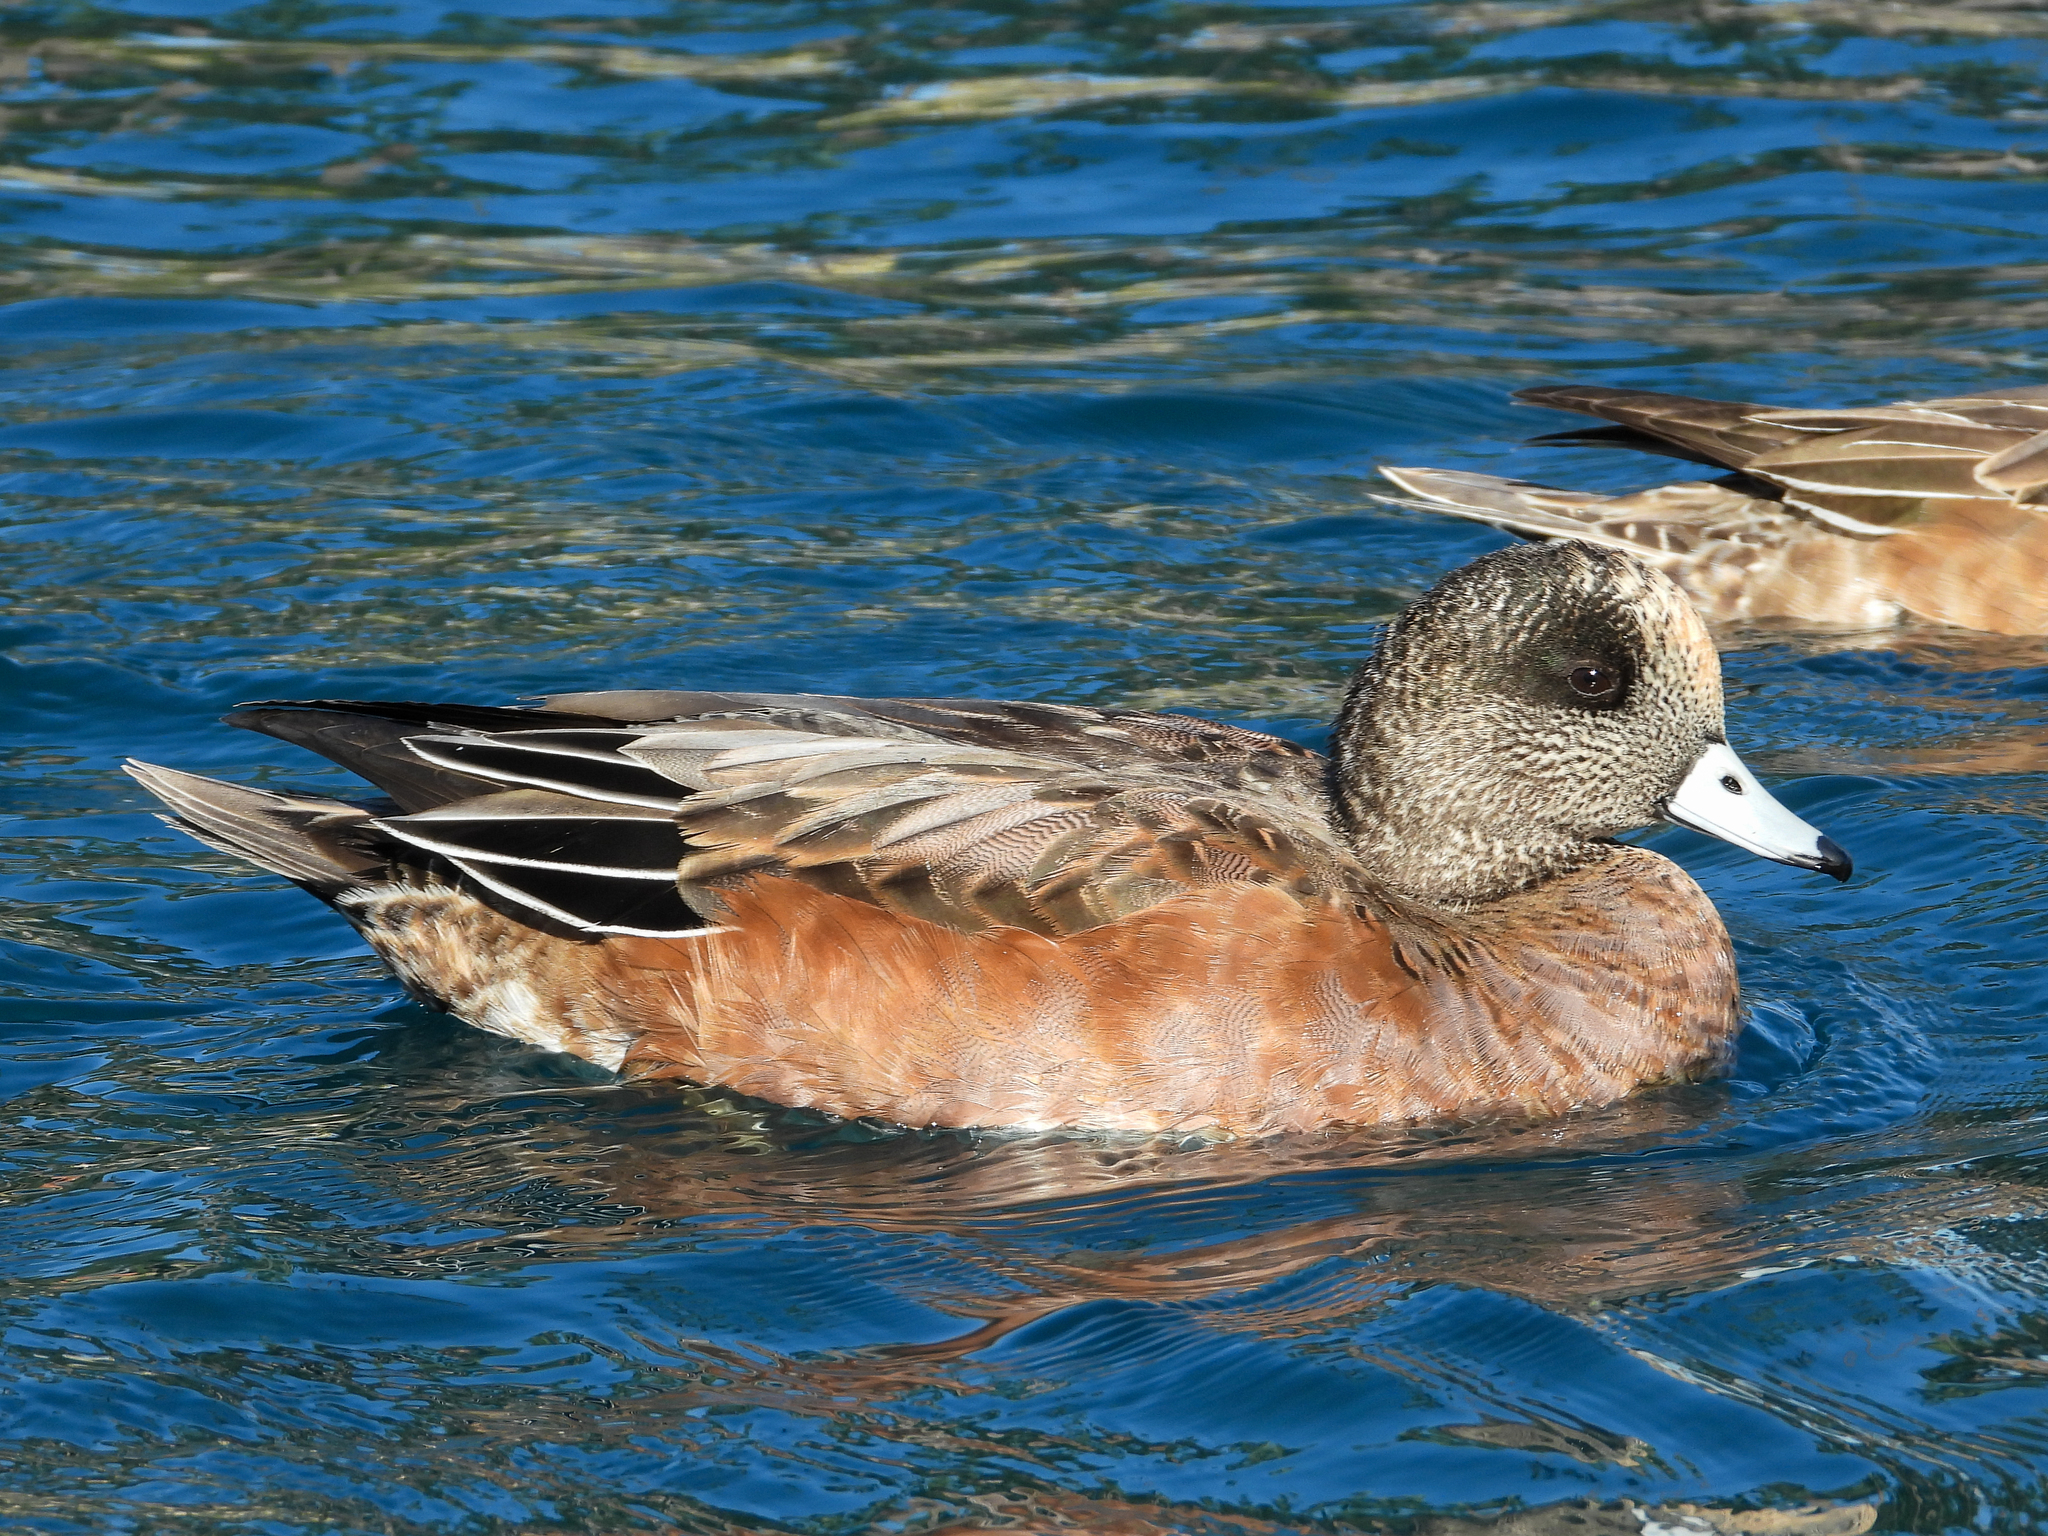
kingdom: Animalia
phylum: Chordata
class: Aves
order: Anseriformes
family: Anatidae
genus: Mareca
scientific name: Mareca americana
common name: American wigeon
